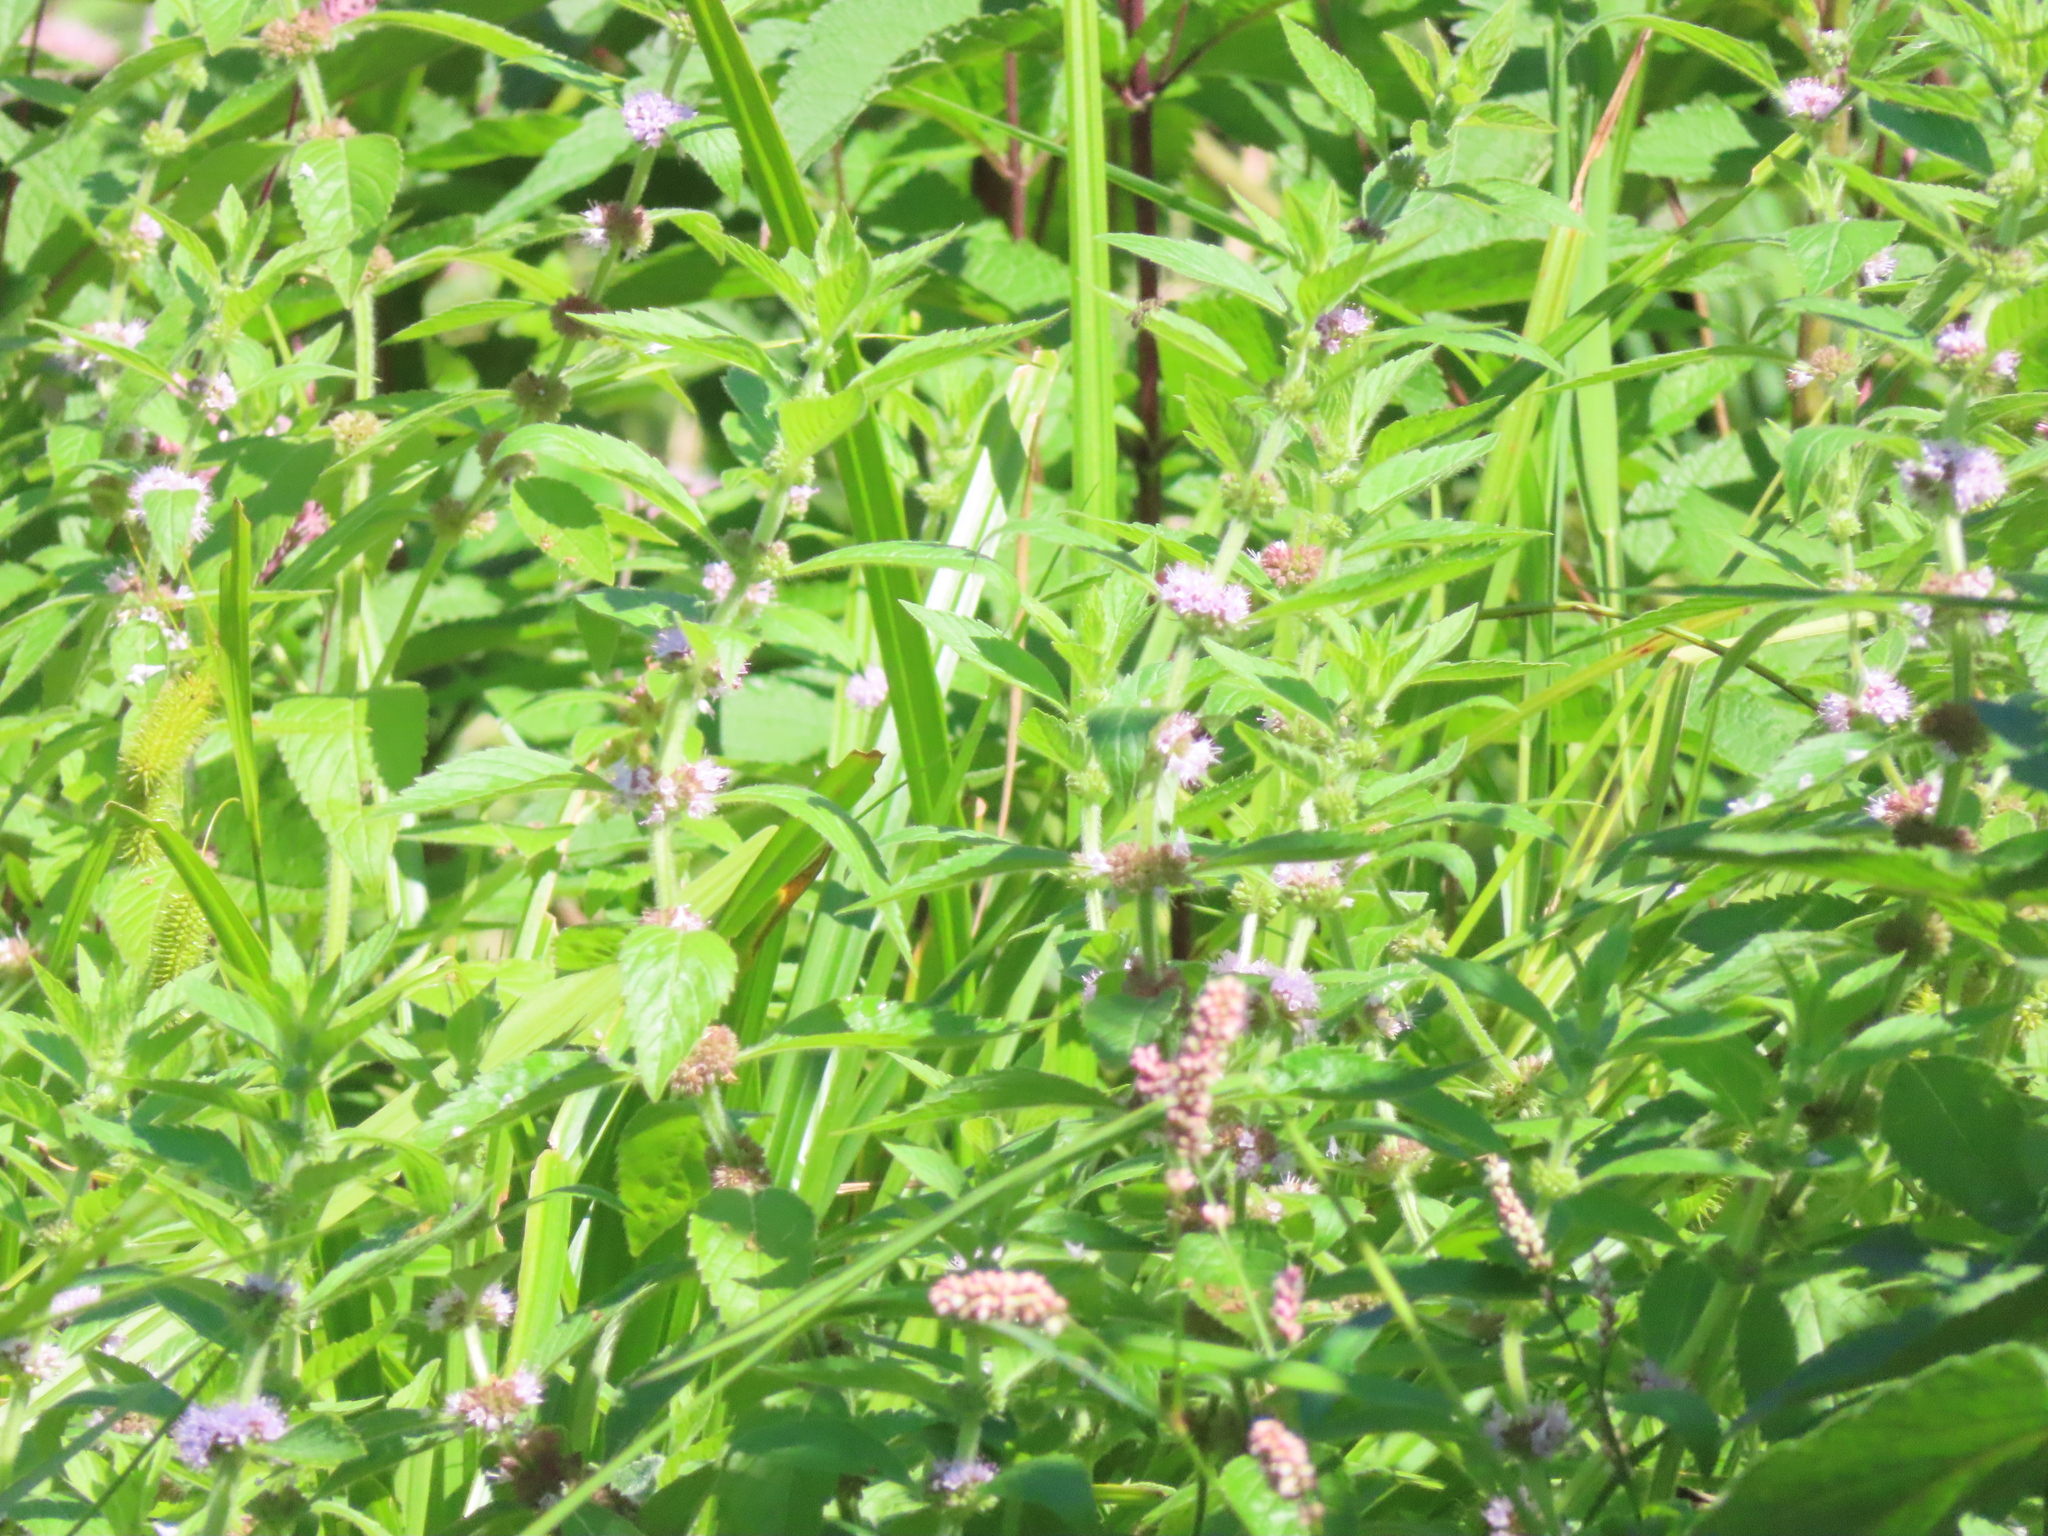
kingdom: Plantae
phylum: Tracheophyta
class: Magnoliopsida
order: Lamiales
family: Lamiaceae
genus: Mentha
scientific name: Mentha canadensis
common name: American corn mint
